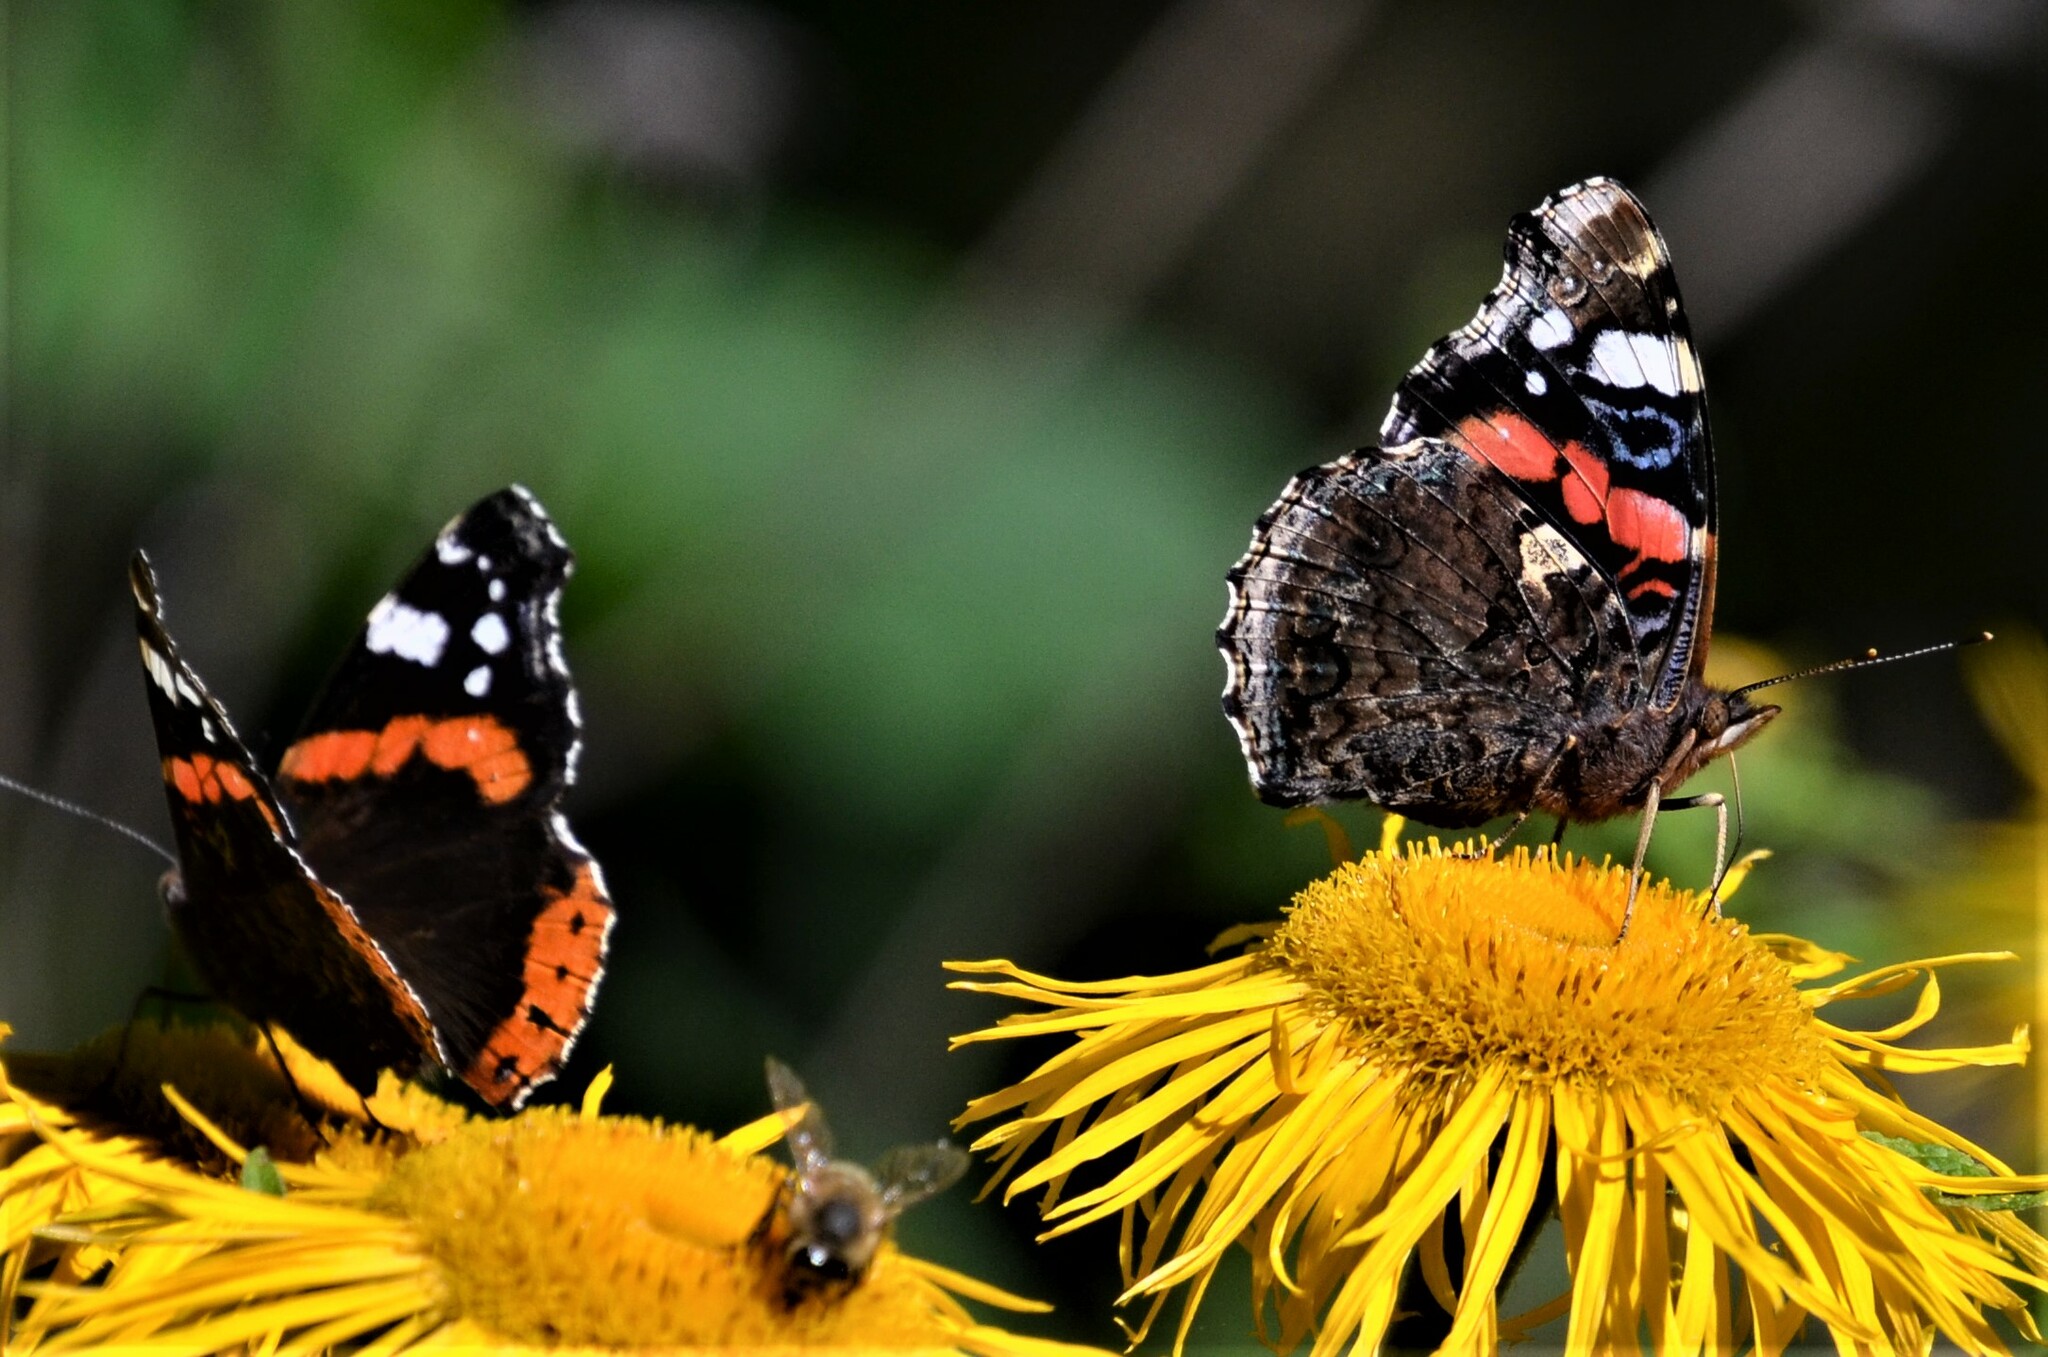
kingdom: Animalia
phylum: Arthropoda
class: Insecta
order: Lepidoptera
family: Nymphalidae
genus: Vanessa
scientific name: Vanessa atalanta
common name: Red admiral
